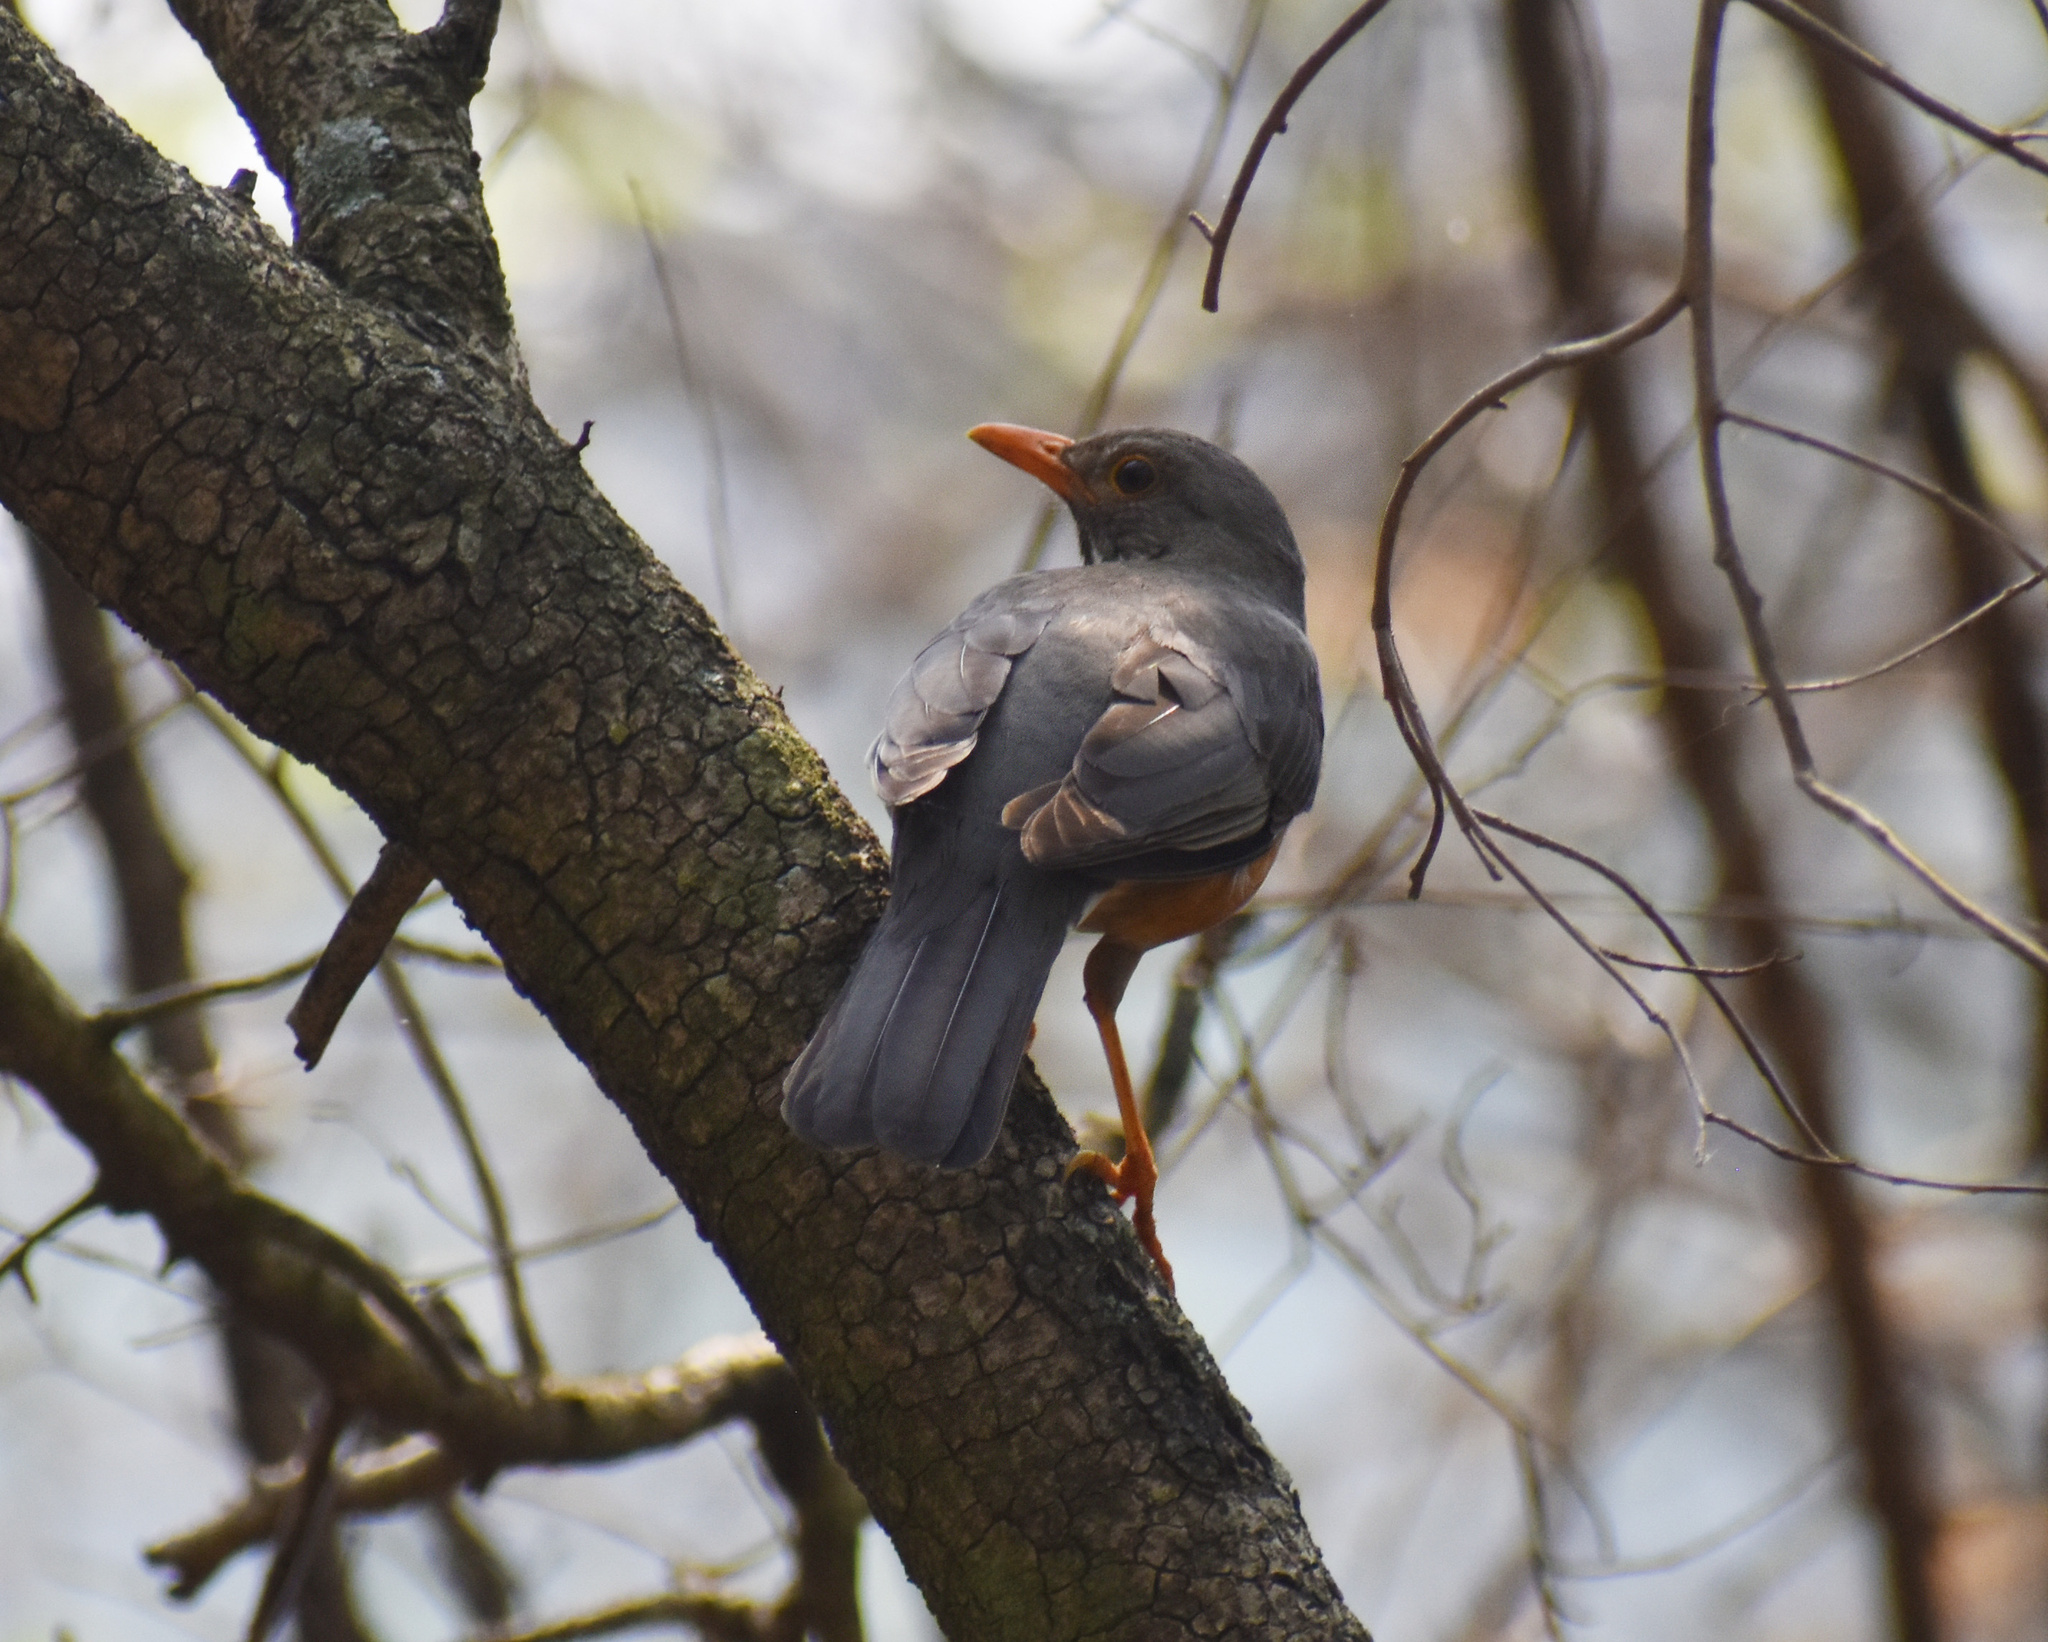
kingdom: Animalia
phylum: Chordata
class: Aves
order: Passeriformes
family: Turdidae
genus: Turdus
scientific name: Turdus smithi
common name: Karoo thrush
